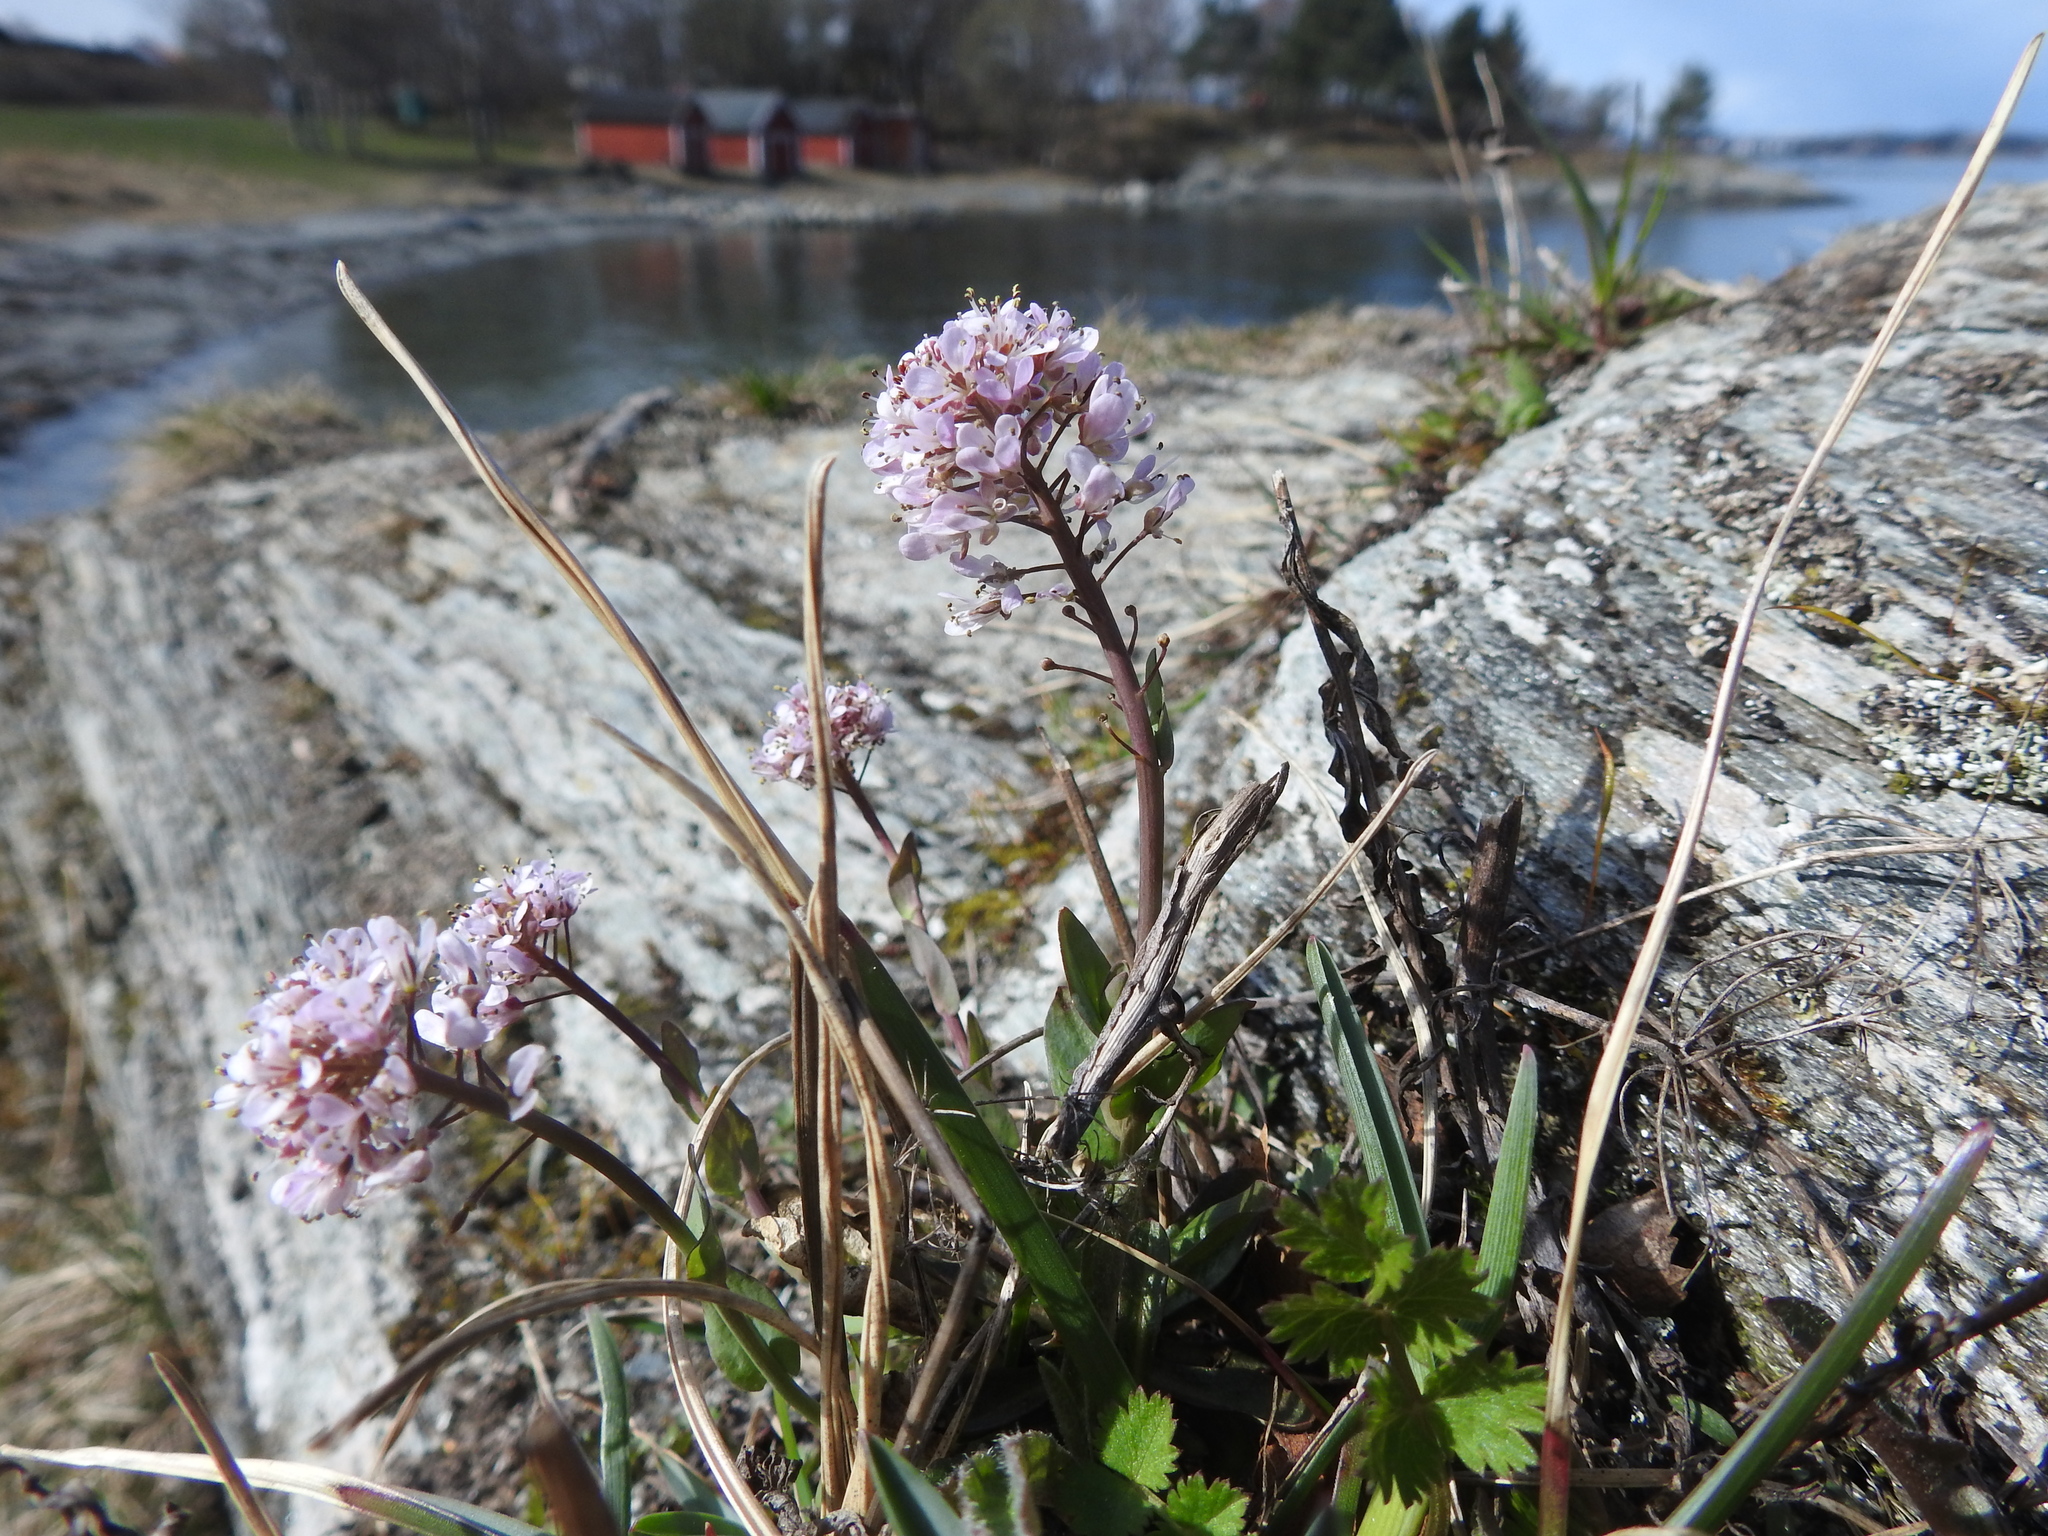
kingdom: Plantae
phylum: Tracheophyta
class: Magnoliopsida
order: Brassicales
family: Brassicaceae
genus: Noccaea
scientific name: Noccaea caerulescens
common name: Alpine pennycress
